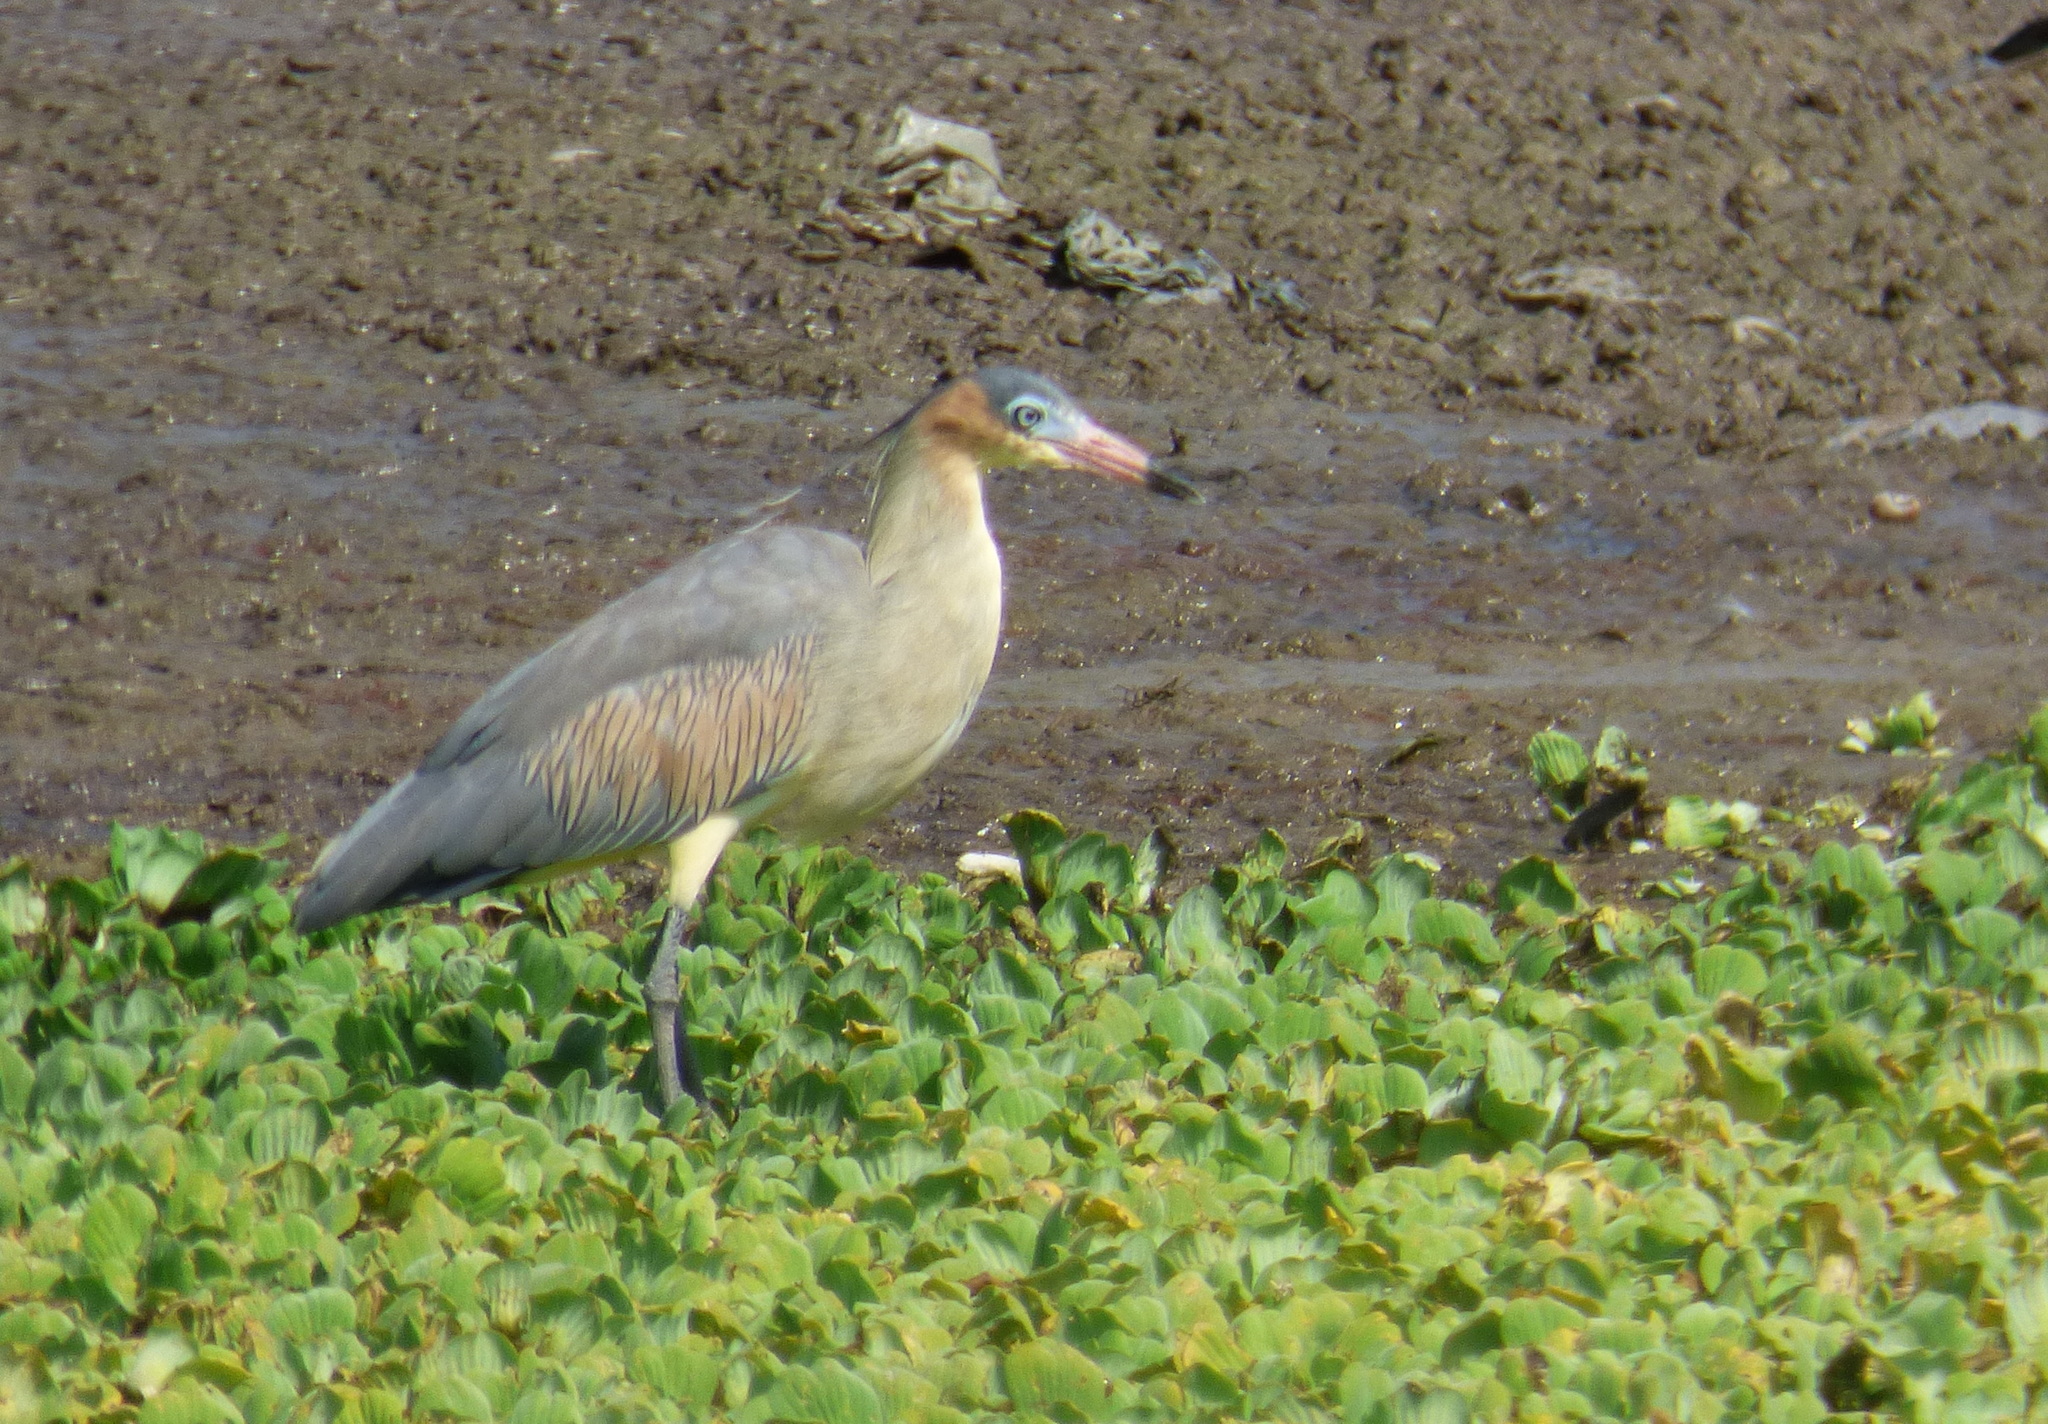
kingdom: Animalia
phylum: Chordata
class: Aves
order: Pelecaniformes
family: Ardeidae
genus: Syrigma
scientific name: Syrigma sibilatrix
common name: Whistling heron
